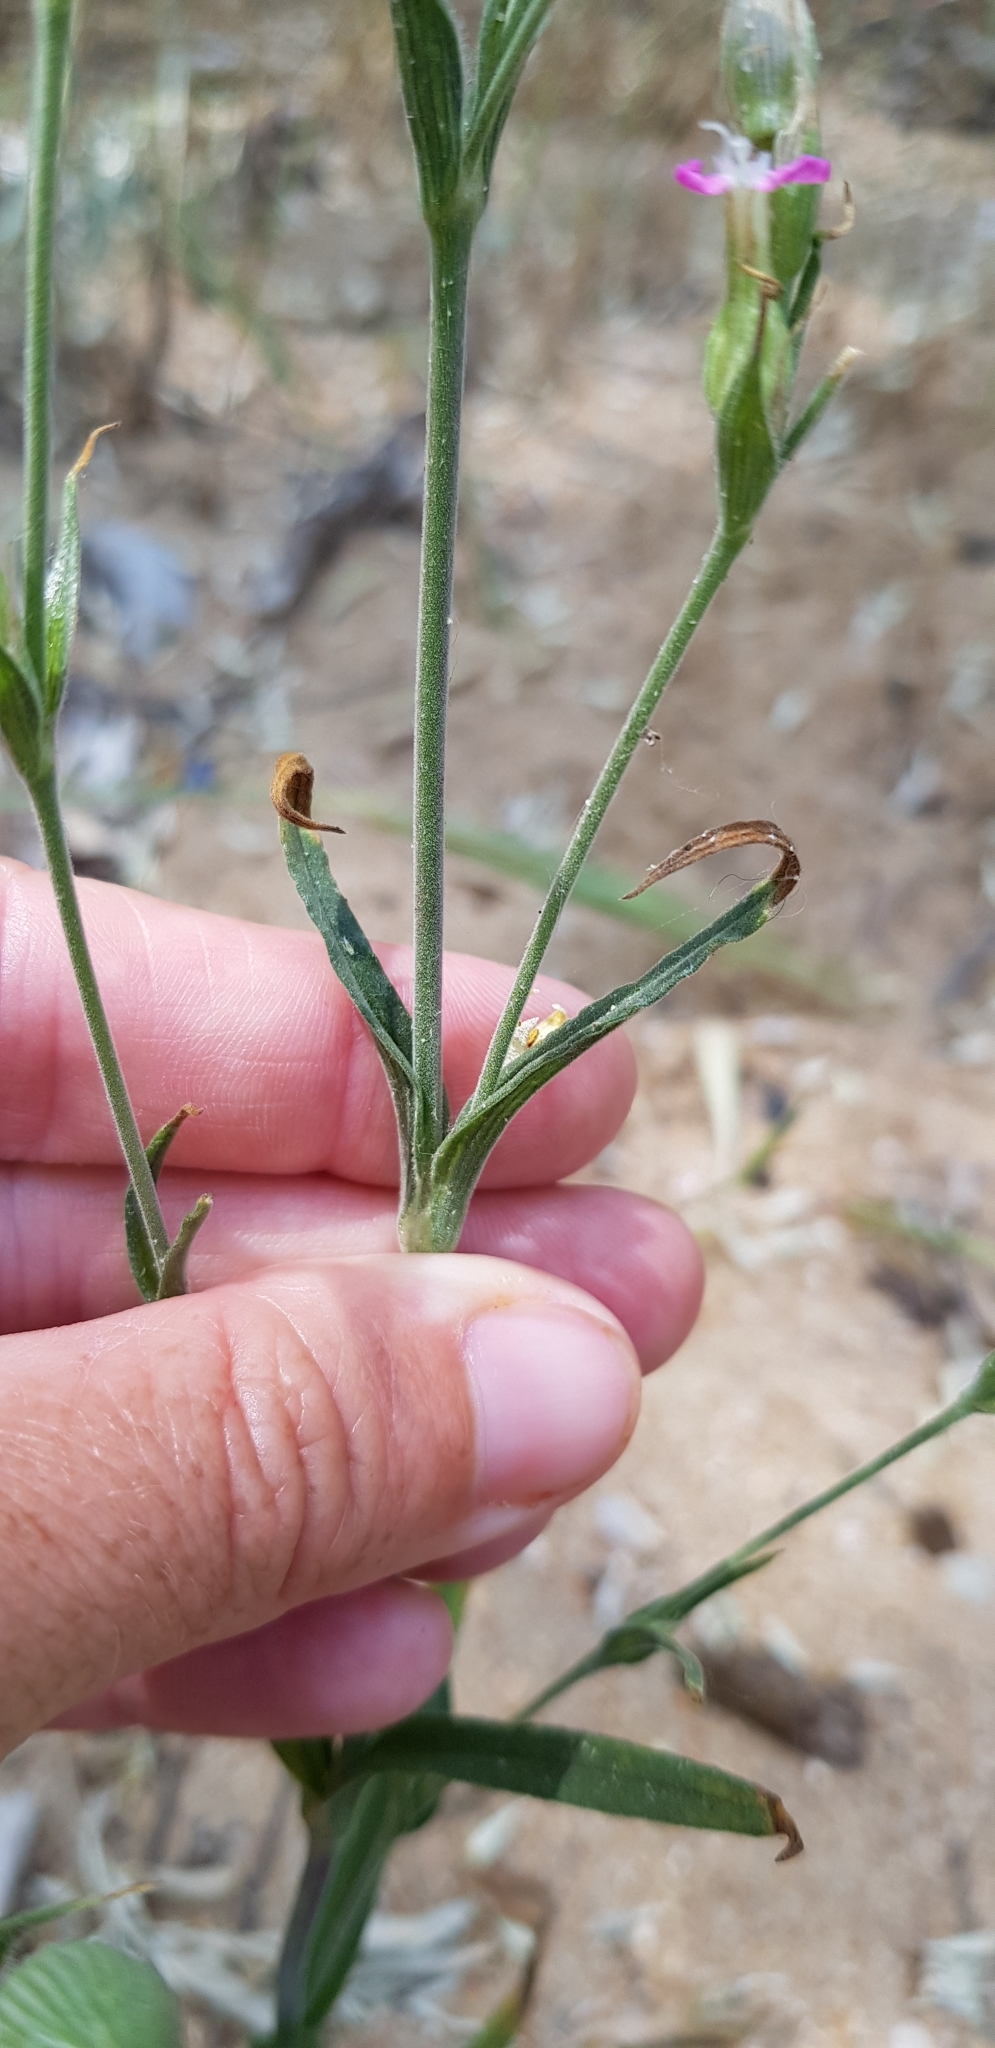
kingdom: Plantae
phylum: Tracheophyta
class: Magnoliopsida
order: Caryophyllales
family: Caryophyllaceae
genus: Silene
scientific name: Silene subconica
